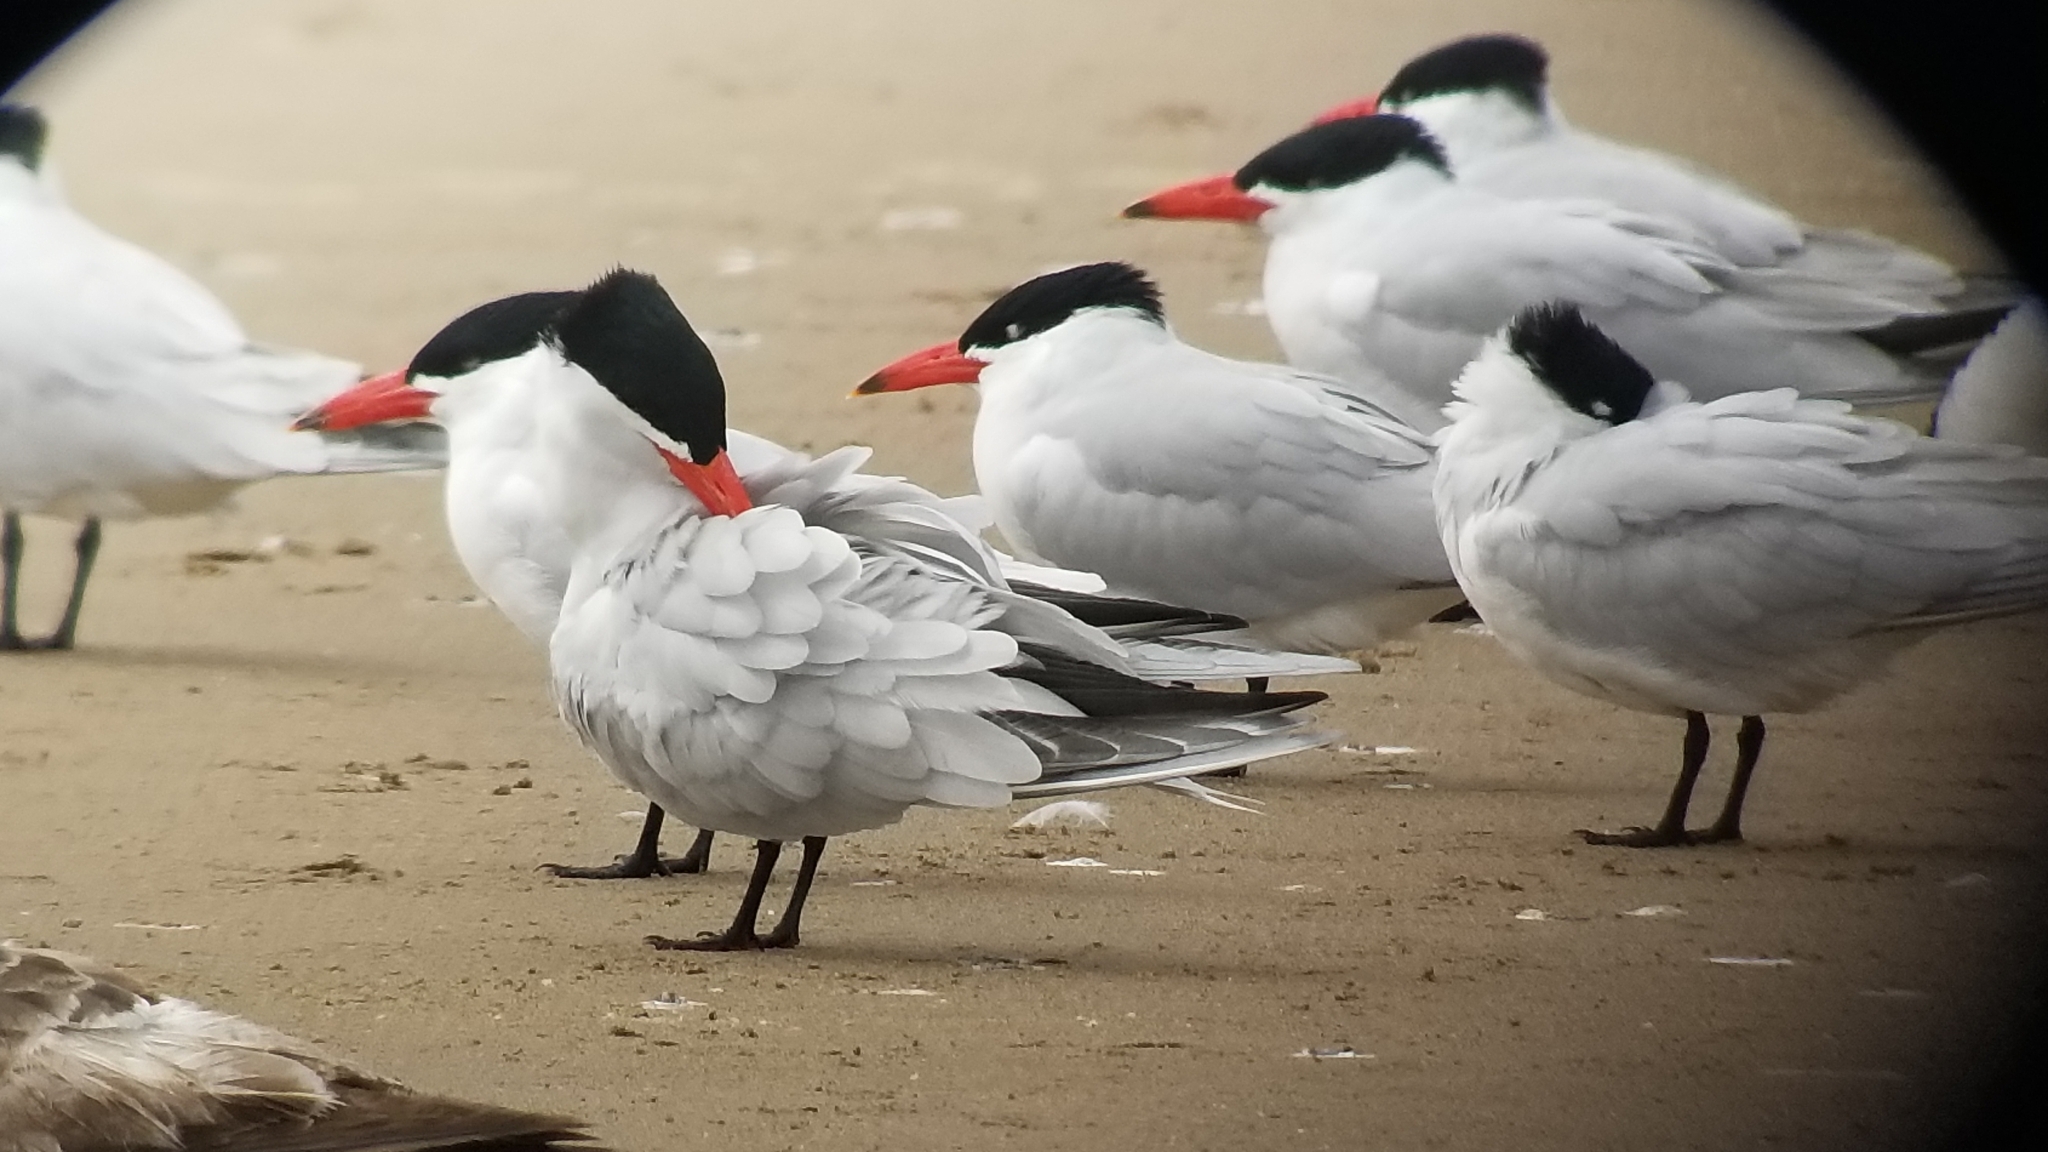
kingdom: Animalia
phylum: Chordata
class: Aves
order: Charadriiformes
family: Laridae
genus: Hydroprogne
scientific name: Hydroprogne caspia
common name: Caspian tern
